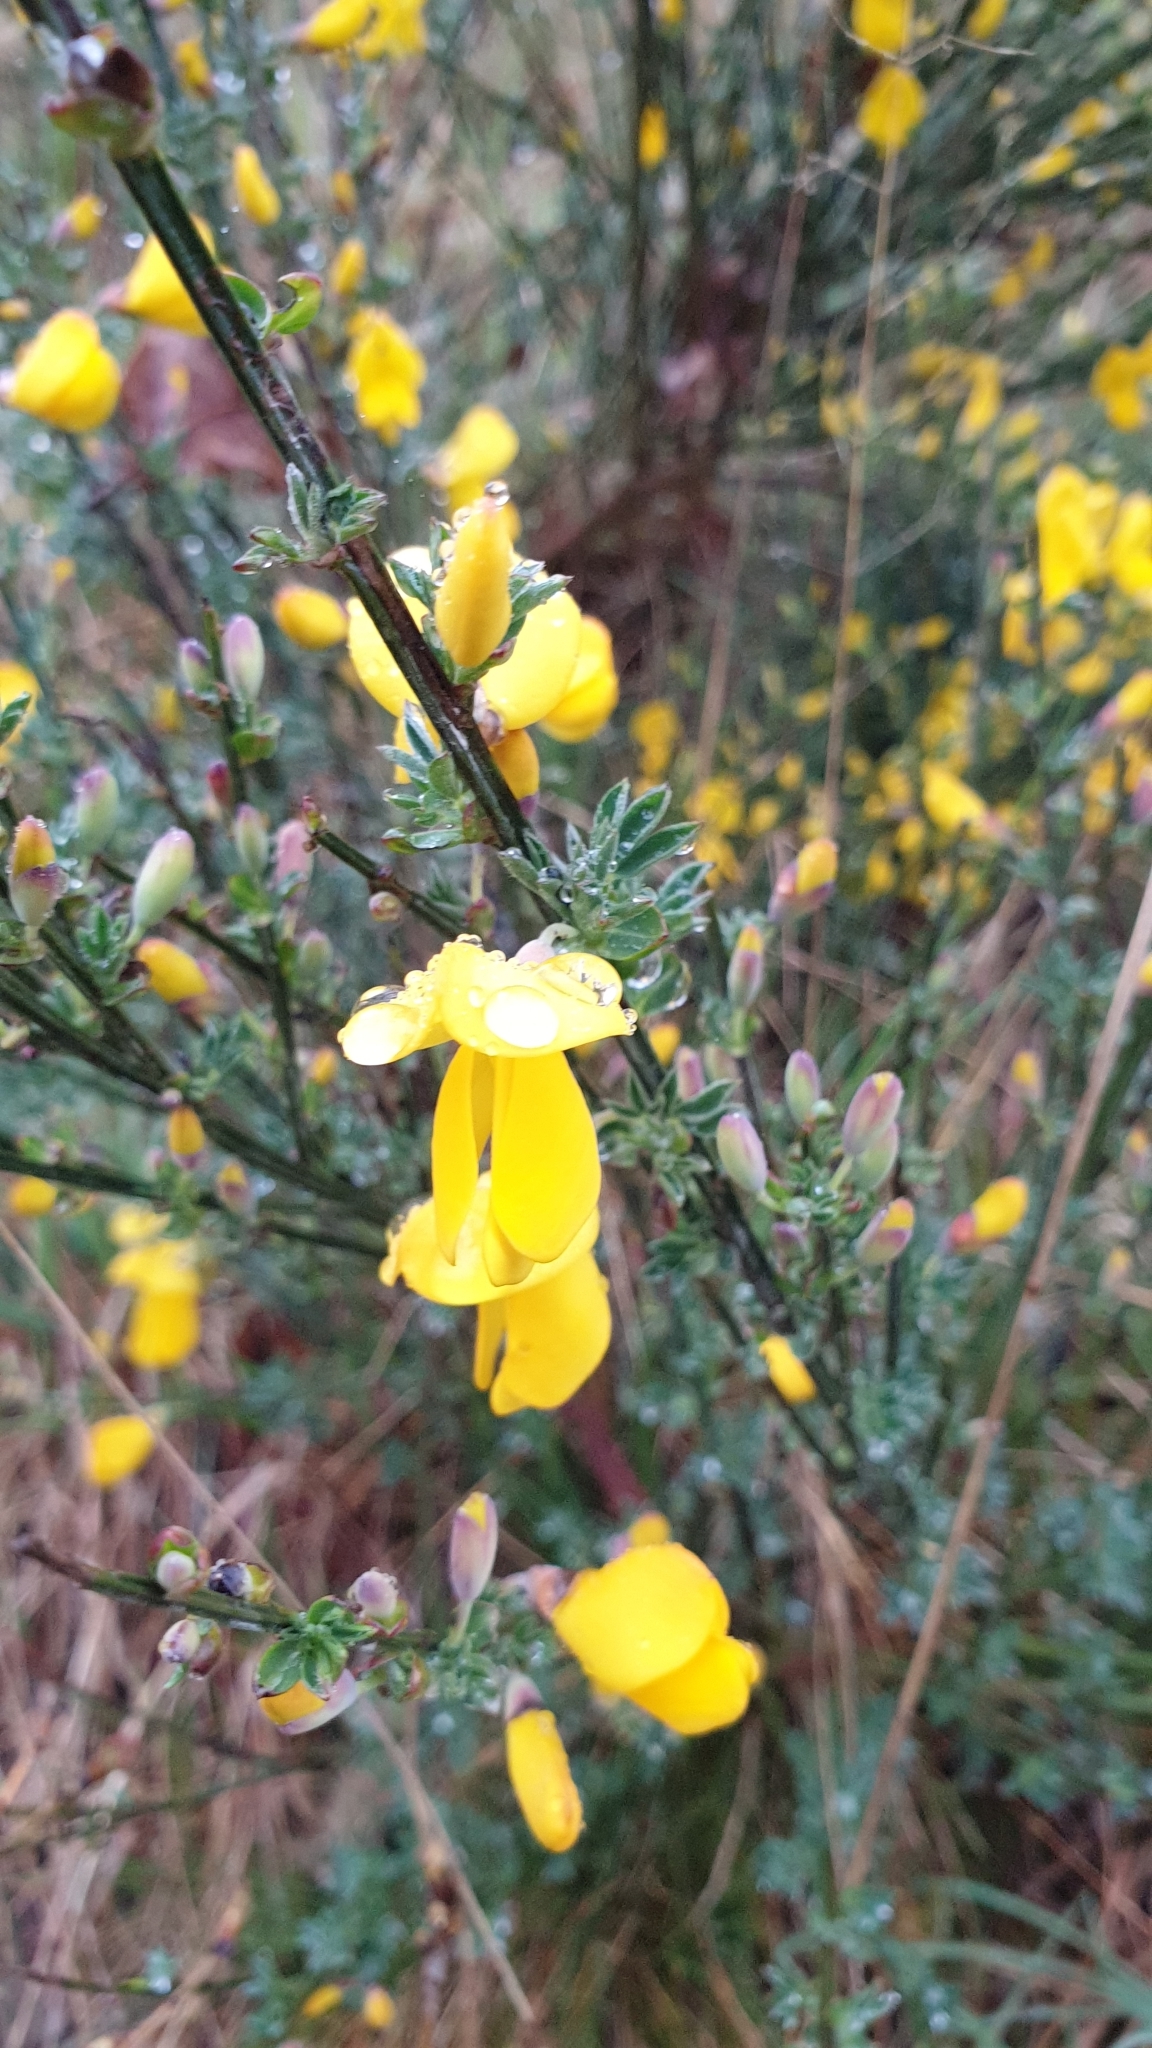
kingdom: Plantae
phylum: Tracheophyta
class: Magnoliopsida
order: Fabales
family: Fabaceae
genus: Cytisus
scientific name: Cytisus scoparius
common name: Scotch broom
